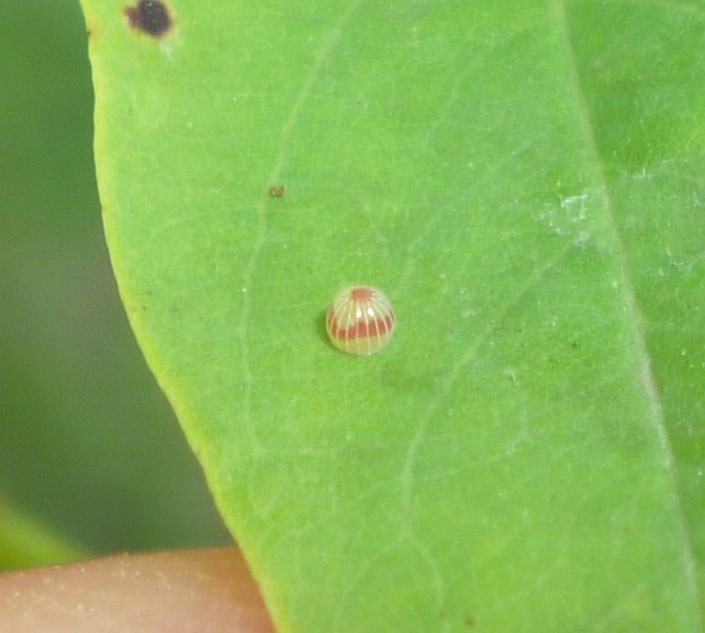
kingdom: Animalia
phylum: Arthropoda
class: Insecta
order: Lepidoptera
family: Hesperiidae
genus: Epargyreus
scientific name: Epargyreus clarus
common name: Silver-spotted skipper
